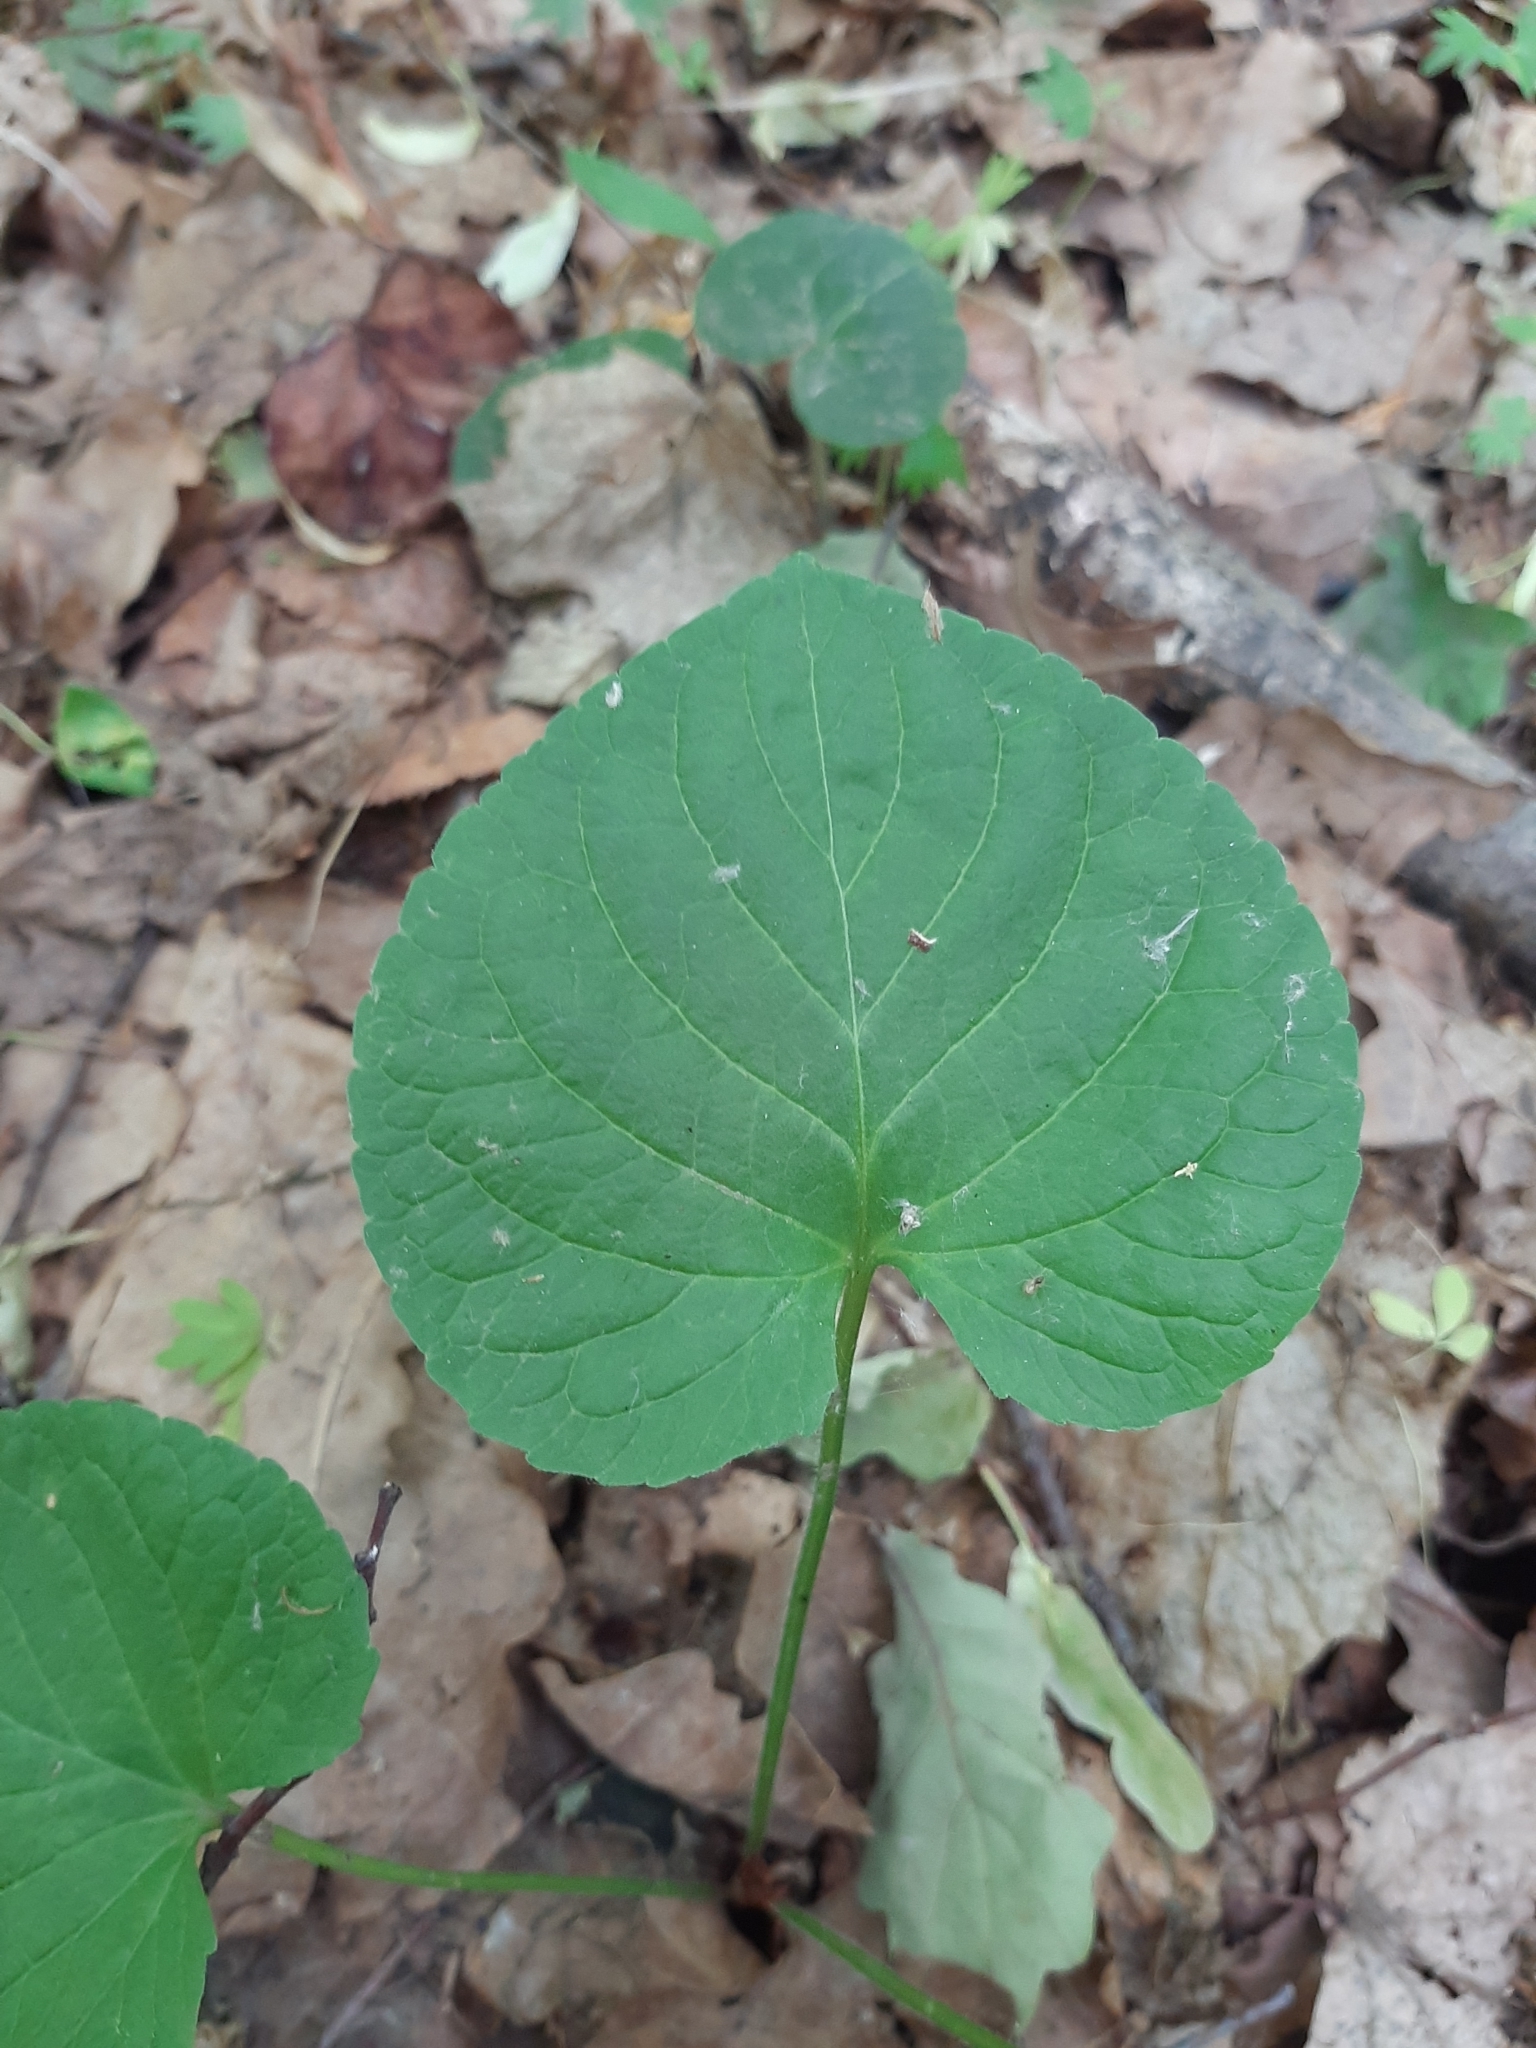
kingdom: Plantae
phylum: Tracheophyta
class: Magnoliopsida
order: Malpighiales
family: Violaceae
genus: Viola
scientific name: Viola mirabilis
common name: Wonder violet
